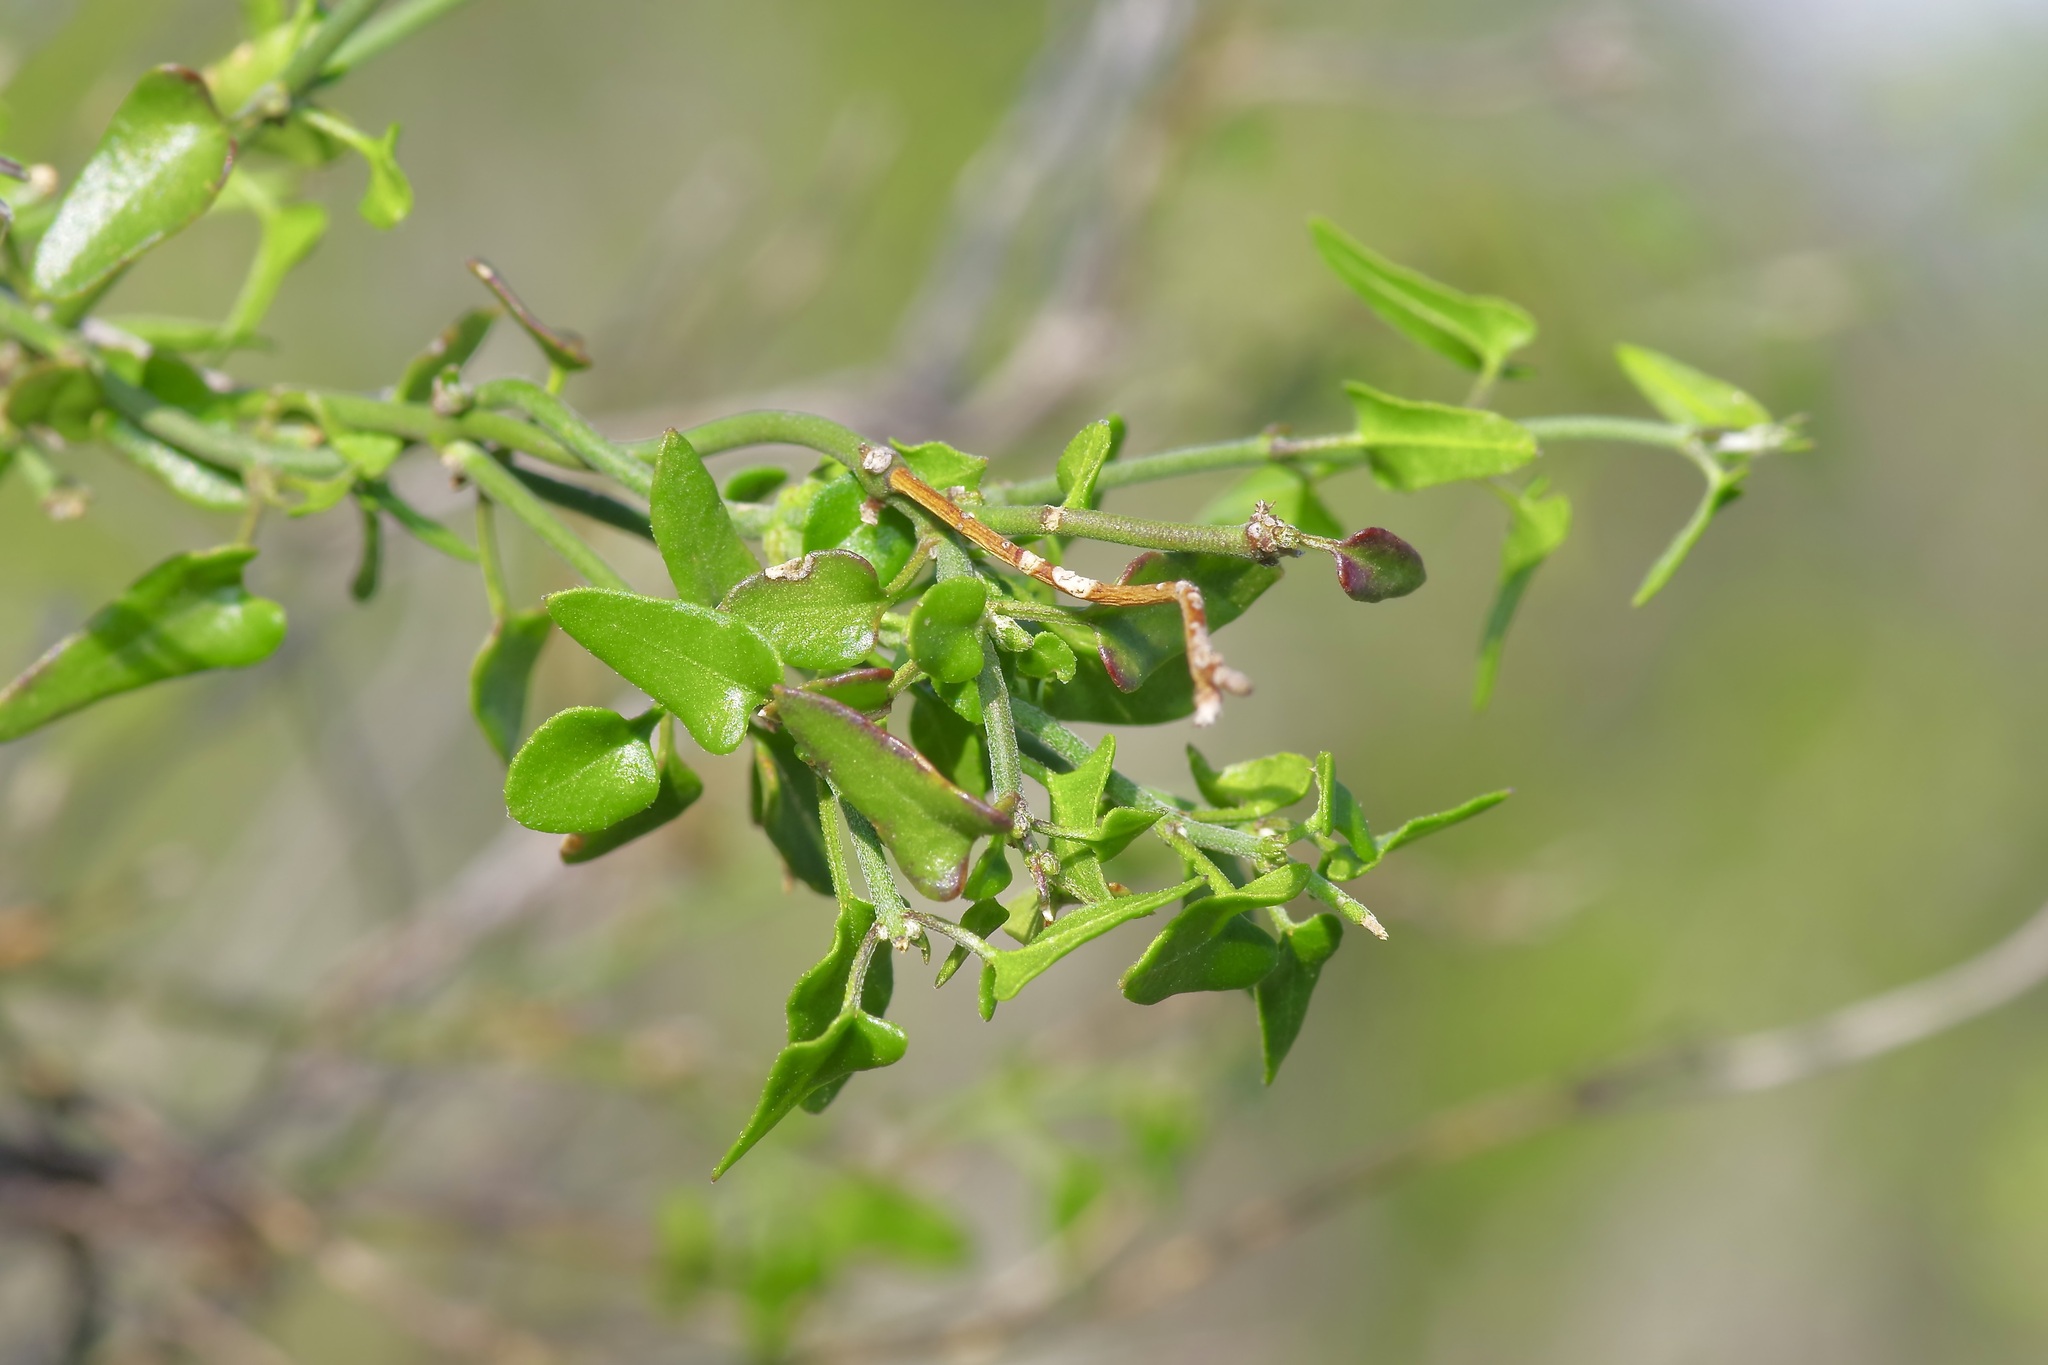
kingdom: Plantae
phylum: Tracheophyta
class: Magnoliopsida
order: Gentianales
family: Apocynaceae
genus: Matelea
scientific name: Matelea sagittifolia
